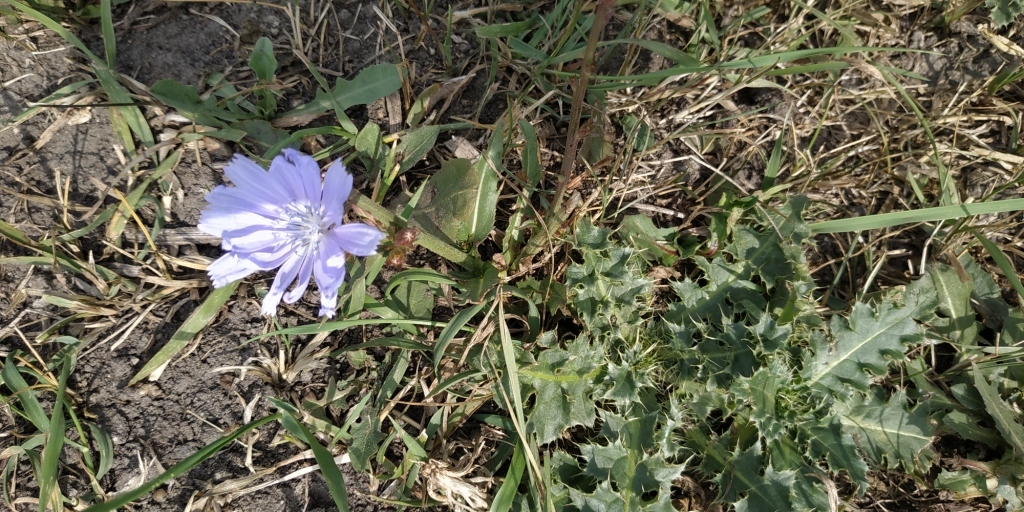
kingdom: Plantae
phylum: Tracheophyta
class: Magnoliopsida
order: Asterales
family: Asteraceae
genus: Cichorium
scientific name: Cichorium intybus
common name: Chicory
